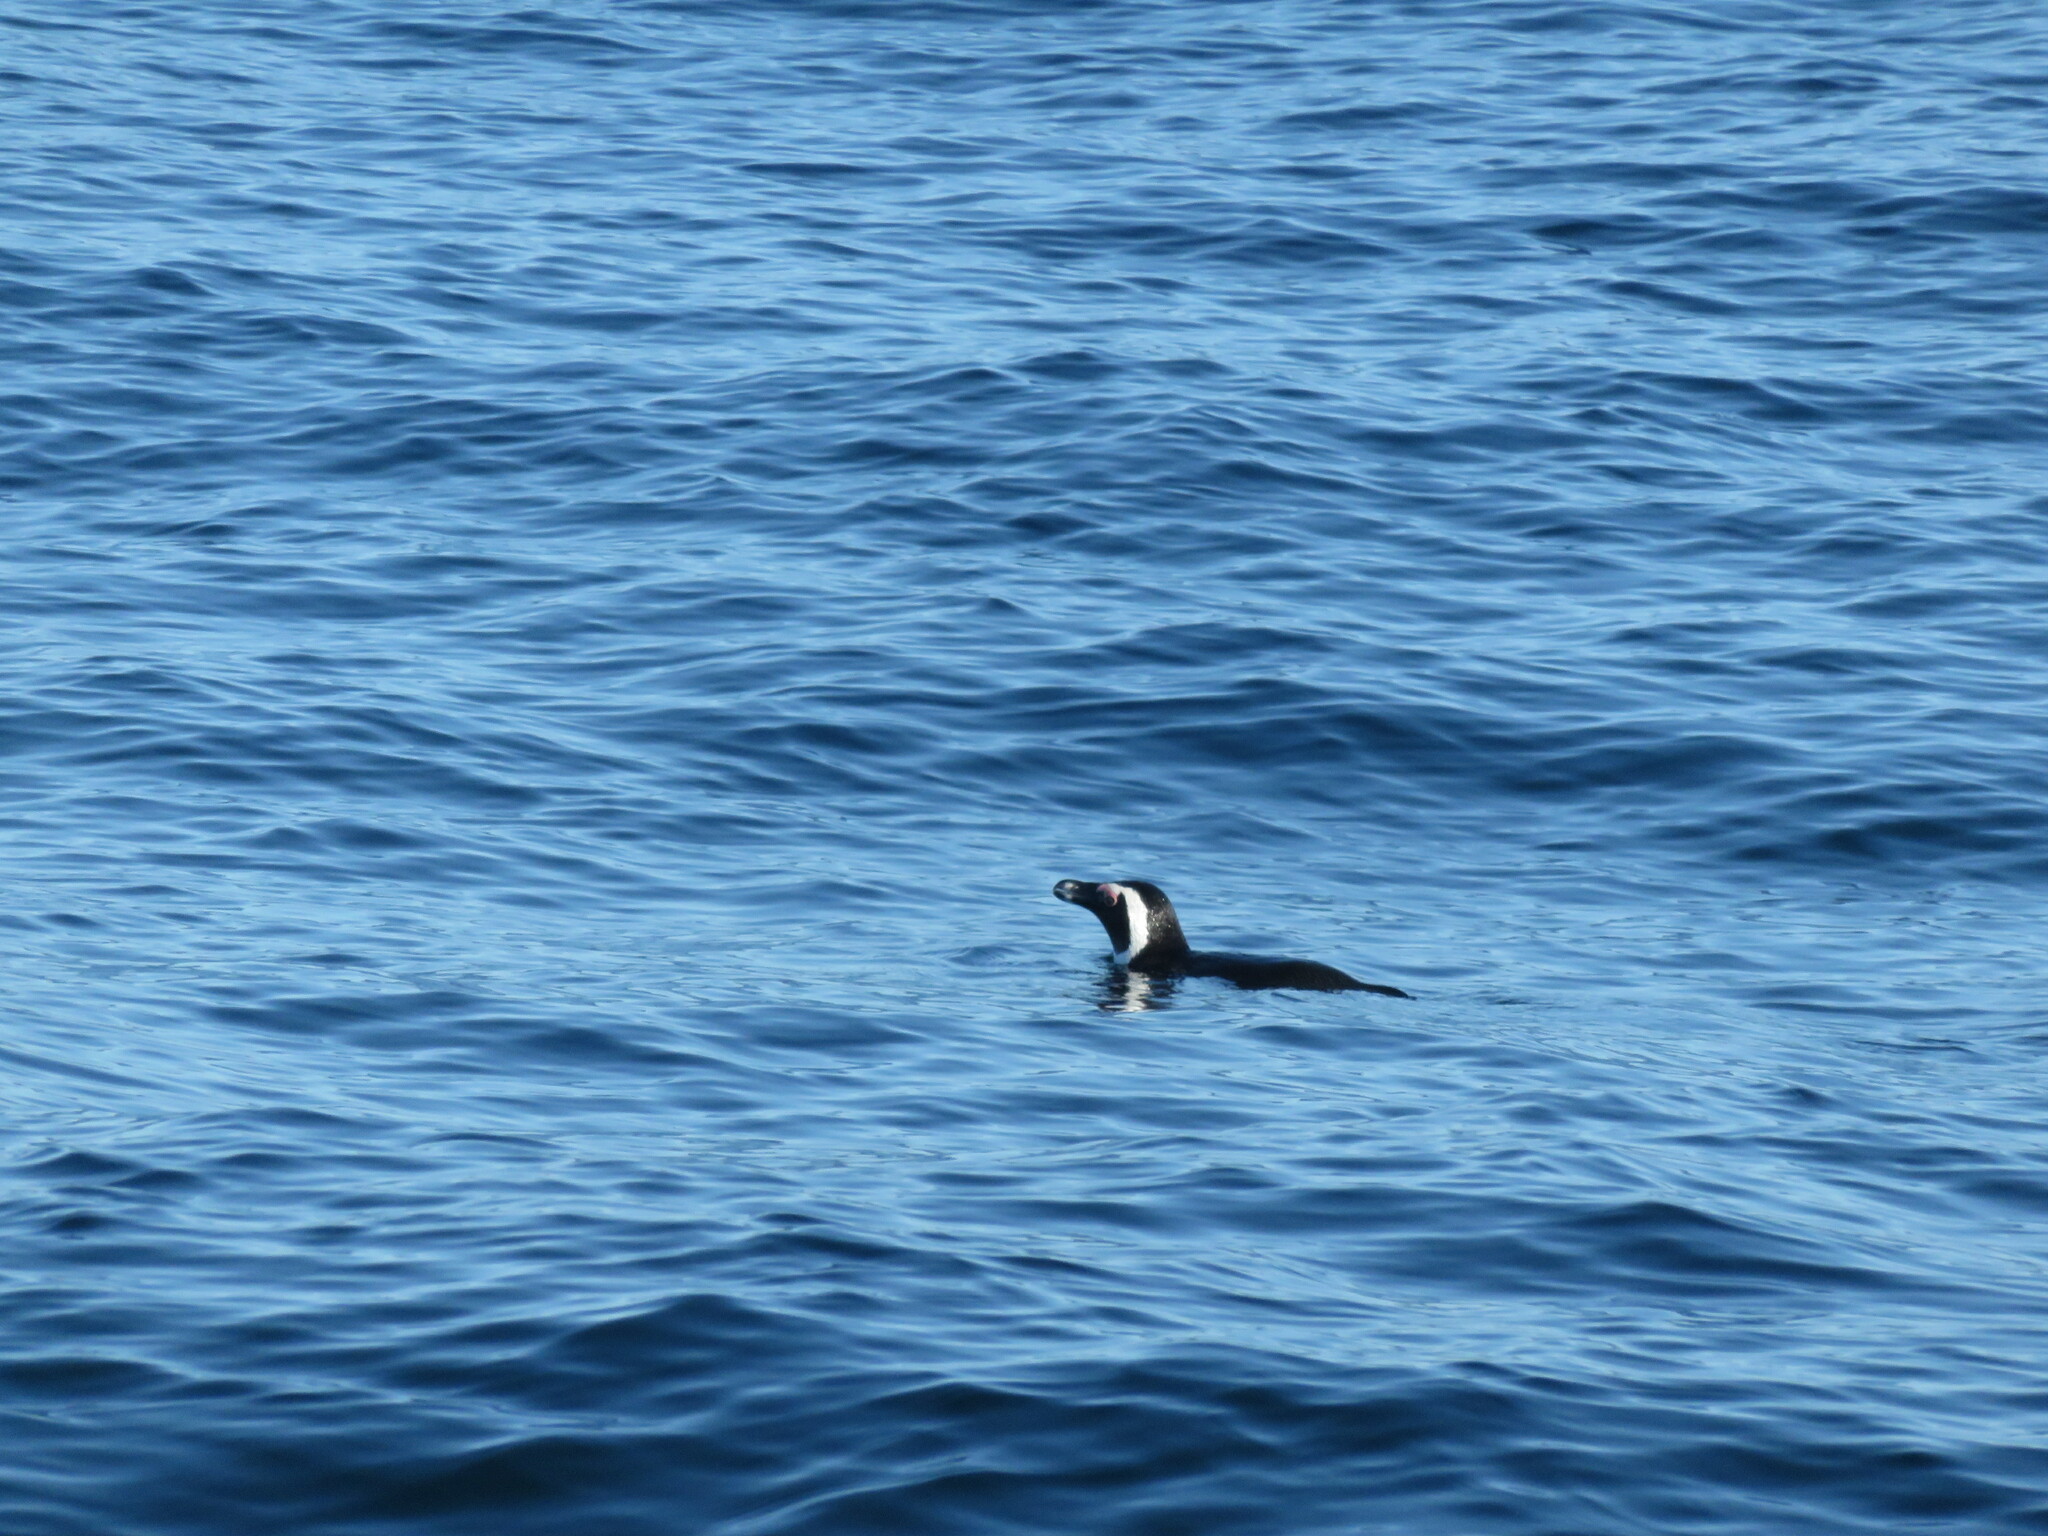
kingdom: Animalia
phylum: Chordata
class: Aves
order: Sphenisciformes
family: Spheniscidae
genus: Spheniscus
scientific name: Spheniscus demersus
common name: African penguin
